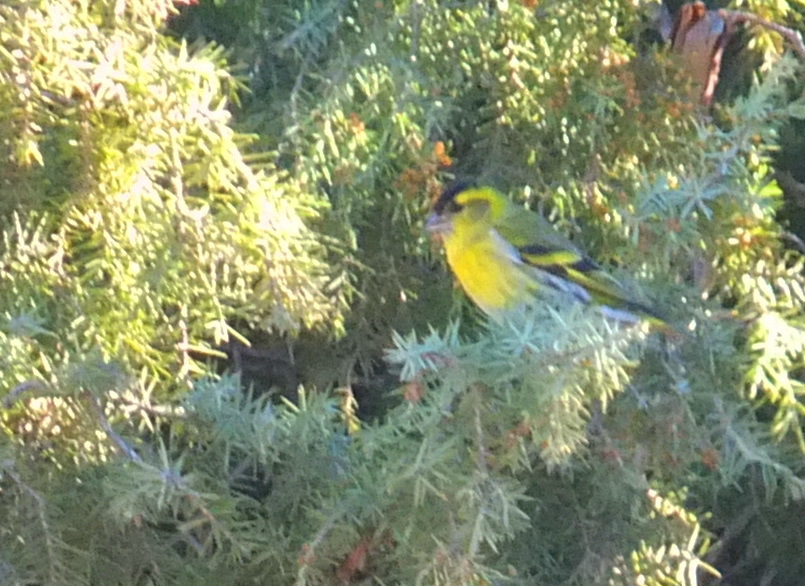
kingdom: Animalia
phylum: Chordata
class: Aves
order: Passeriformes
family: Fringillidae
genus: Spinus
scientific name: Spinus spinus
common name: Eurasian siskin
